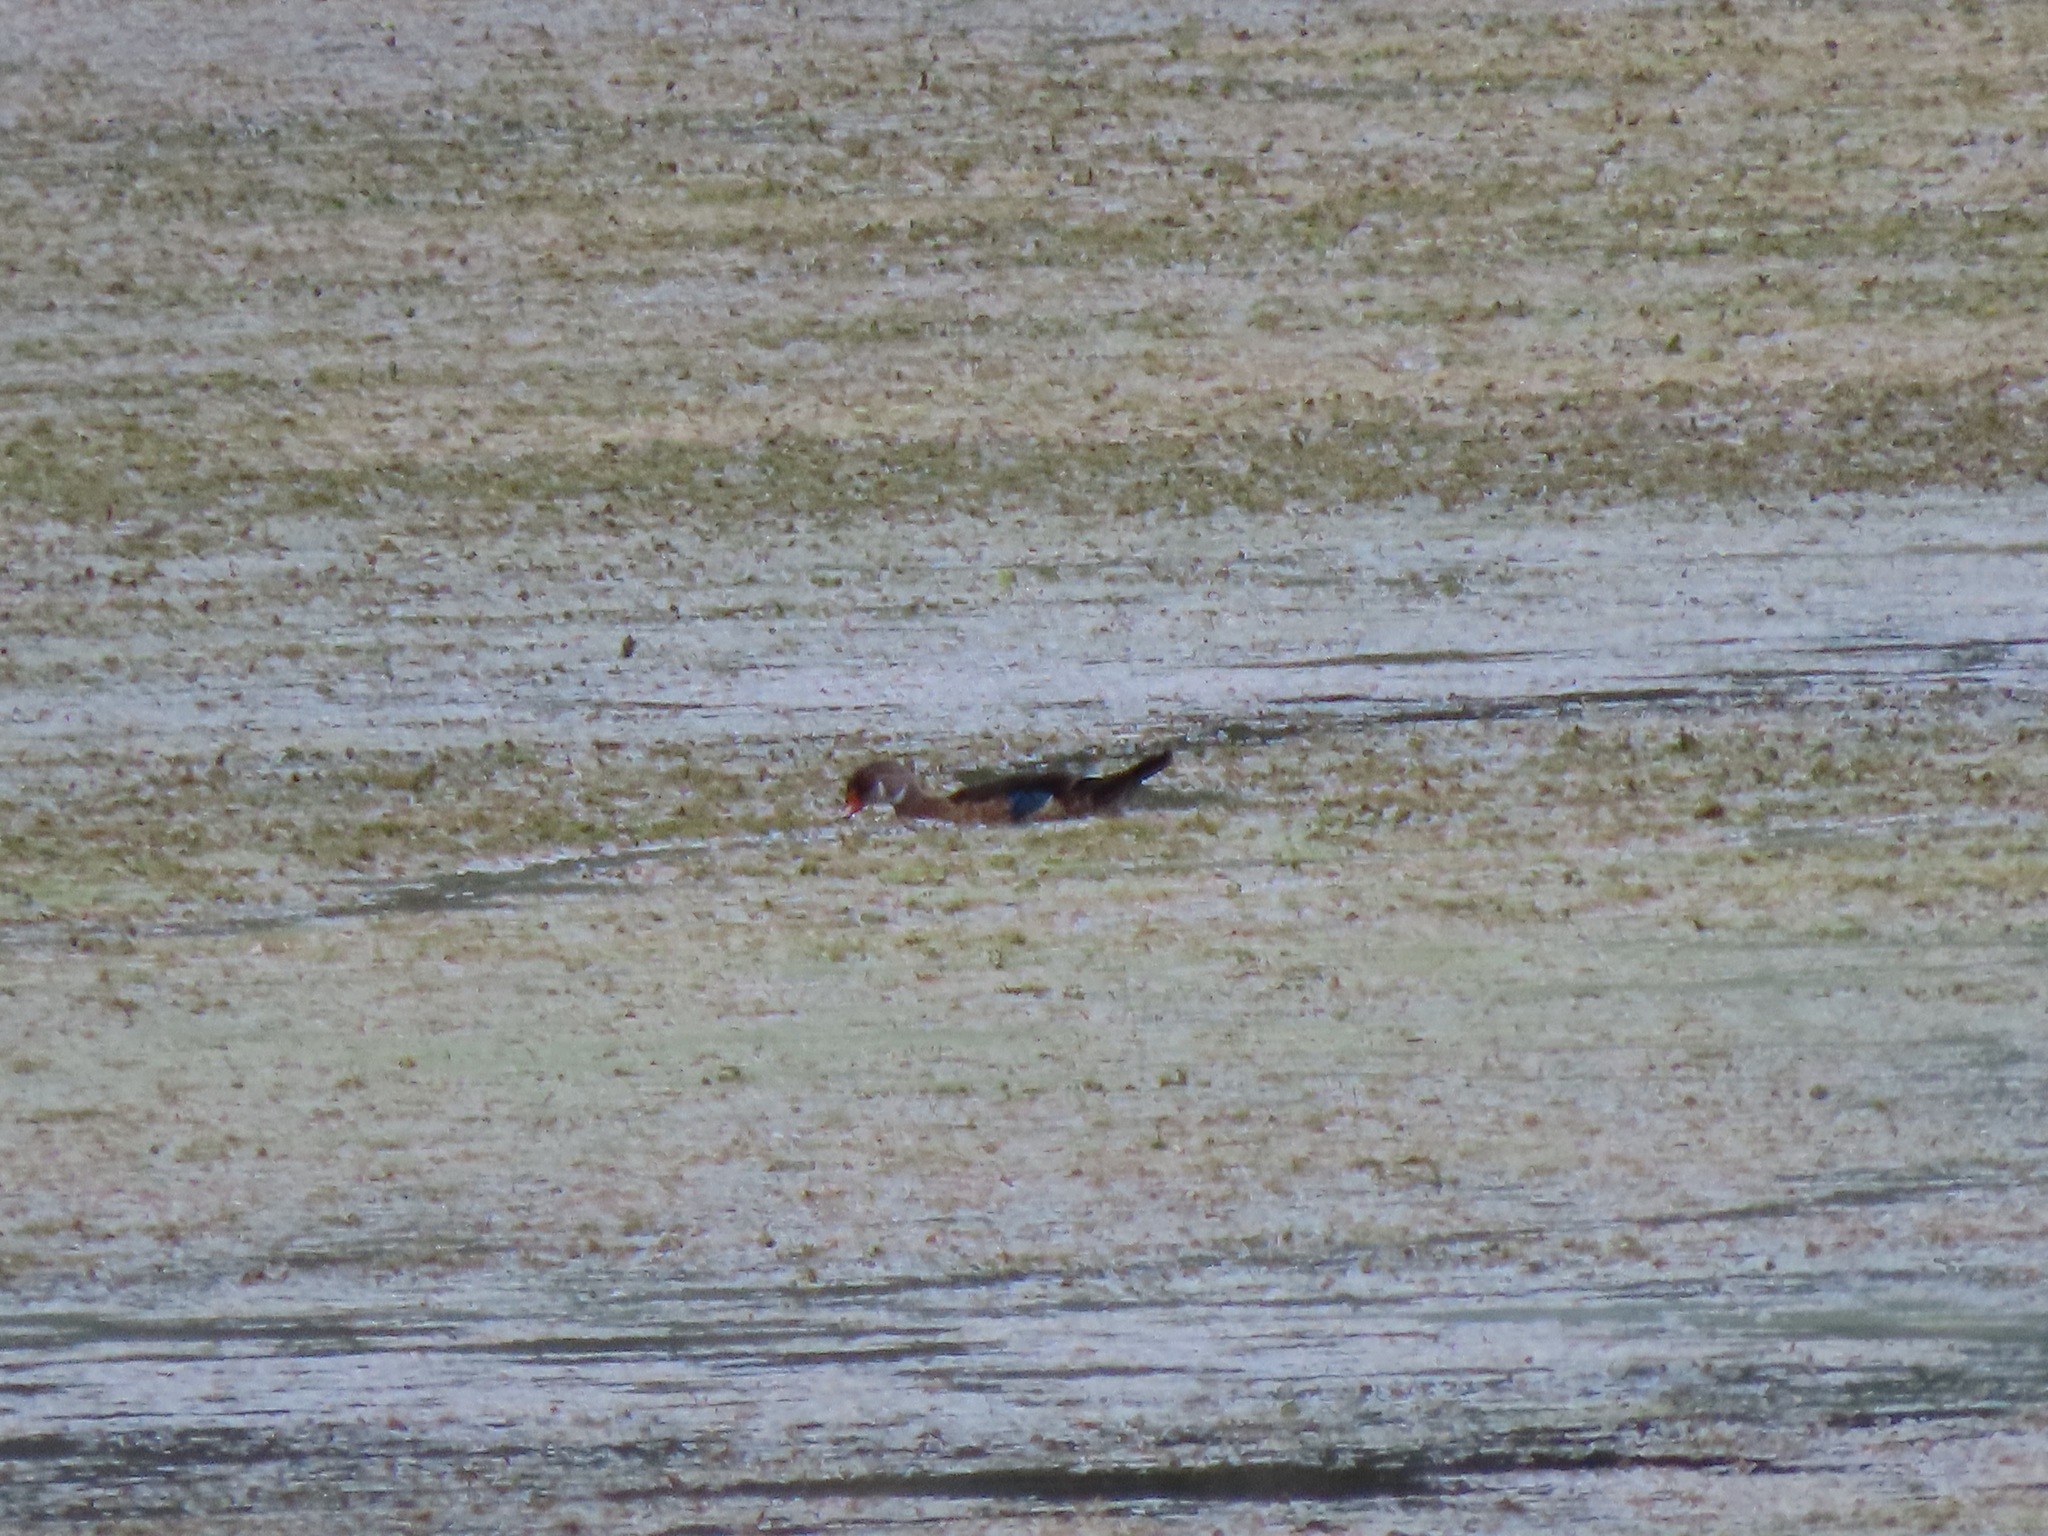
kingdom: Animalia
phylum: Chordata
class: Aves
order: Anseriformes
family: Anatidae
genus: Aix
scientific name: Aix sponsa
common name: Wood duck
